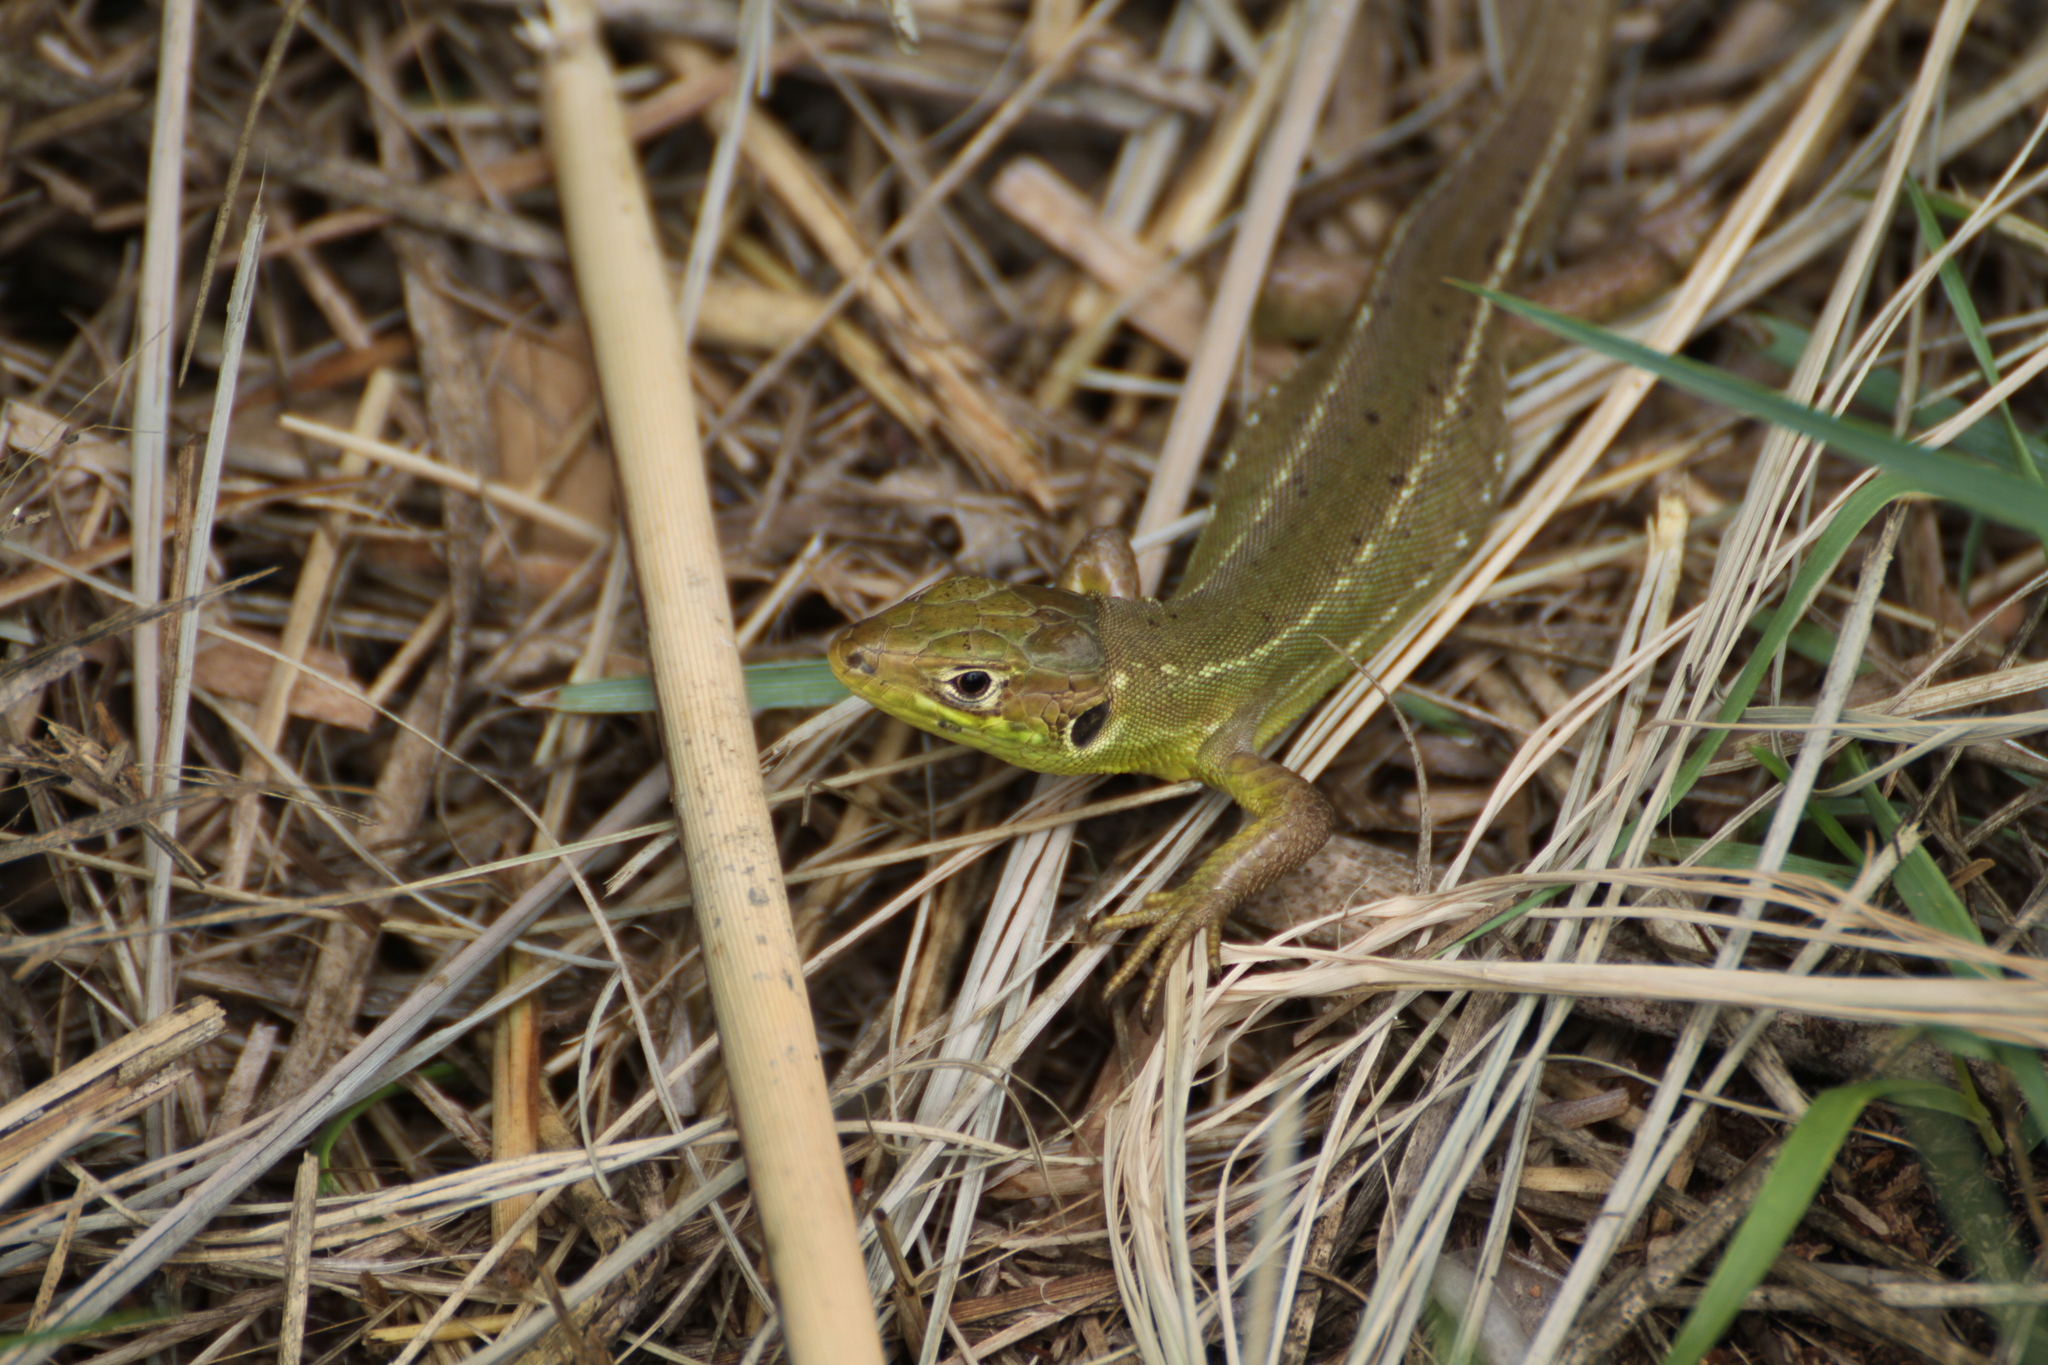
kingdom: Animalia
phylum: Chordata
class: Squamata
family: Lacertidae
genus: Lacerta
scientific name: Lacerta bilineata
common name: Western green lizard
